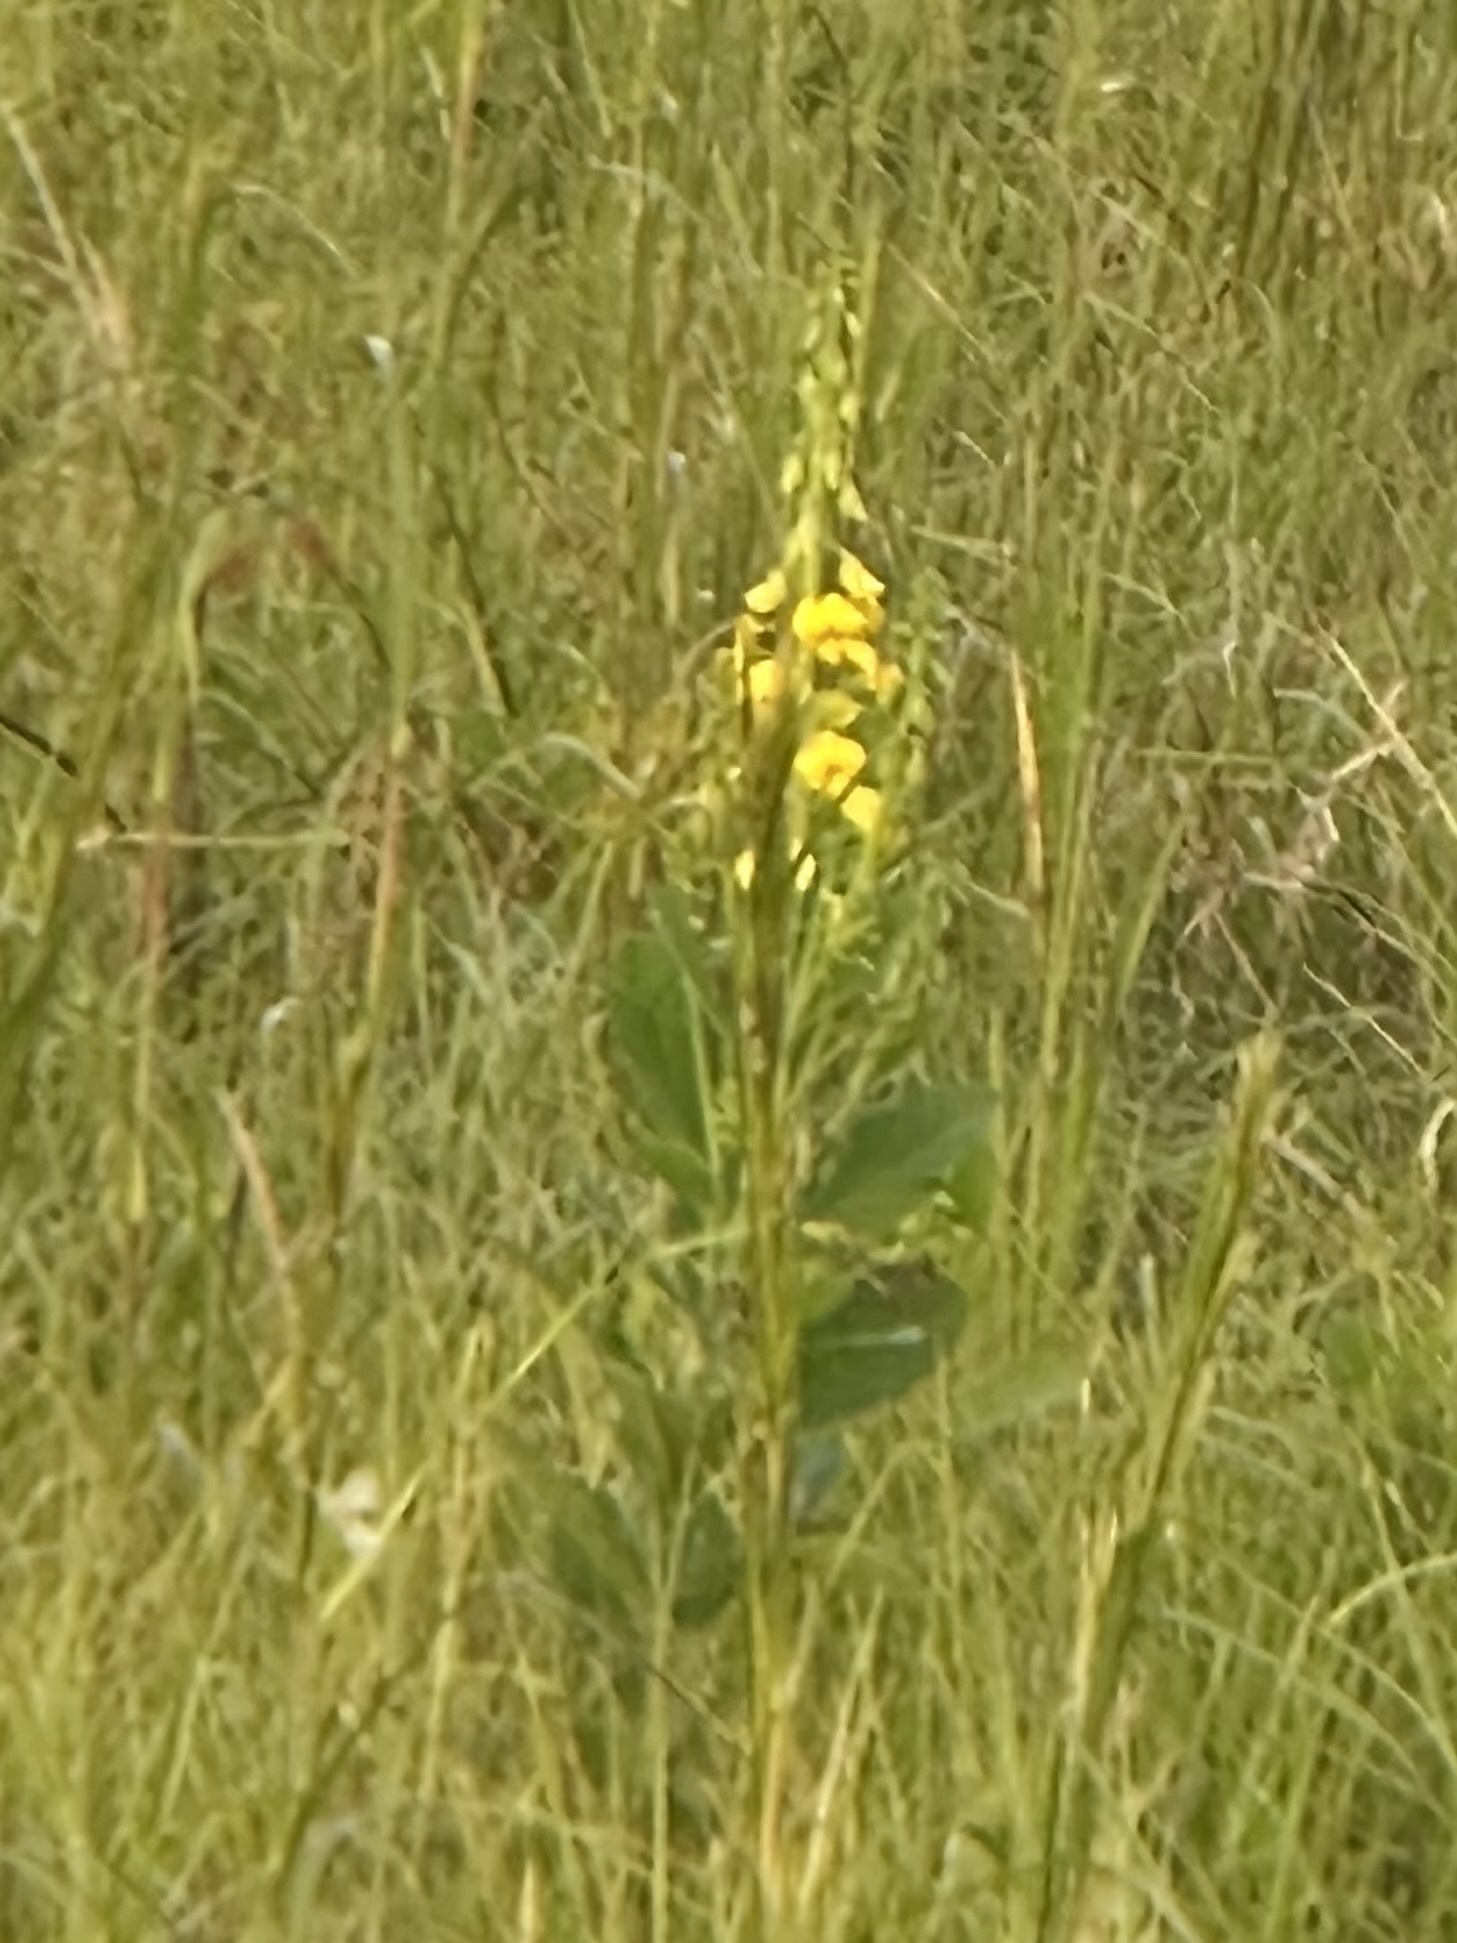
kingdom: Plantae
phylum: Tracheophyta
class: Magnoliopsida
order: Fabales
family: Fabaceae
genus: Crotalaria
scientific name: Crotalaria spectabilis
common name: Showy rattlebox
